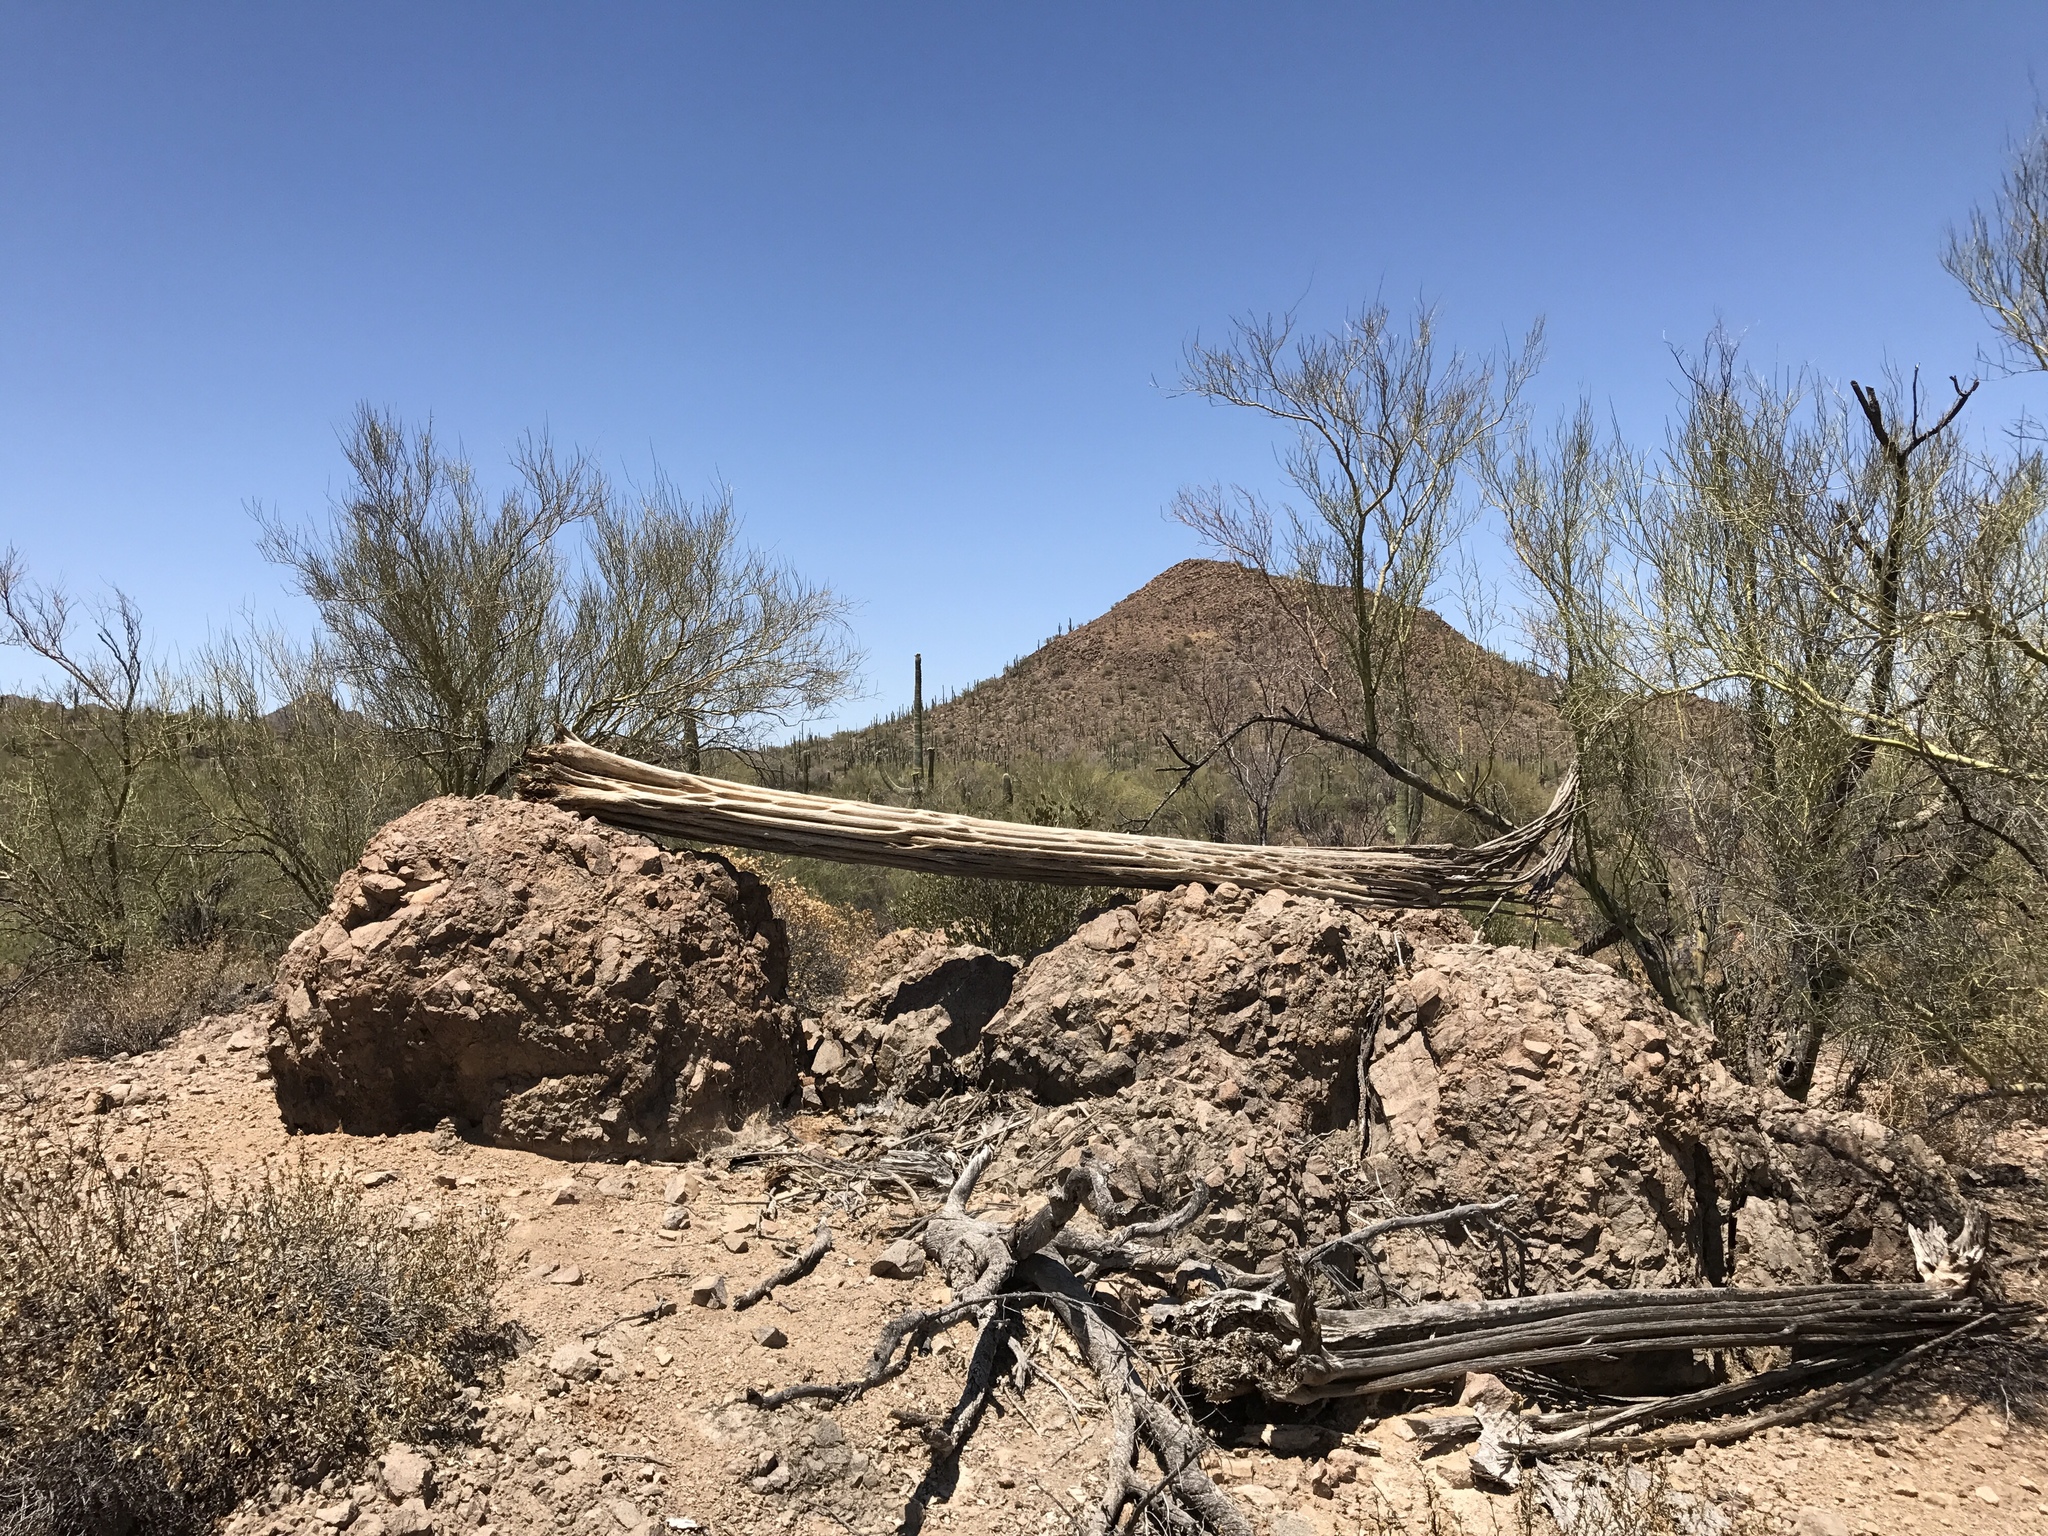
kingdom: Plantae
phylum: Tracheophyta
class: Magnoliopsida
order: Caryophyllales
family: Cactaceae
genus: Carnegiea
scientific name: Carnegiea gigantea
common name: Saguaro
